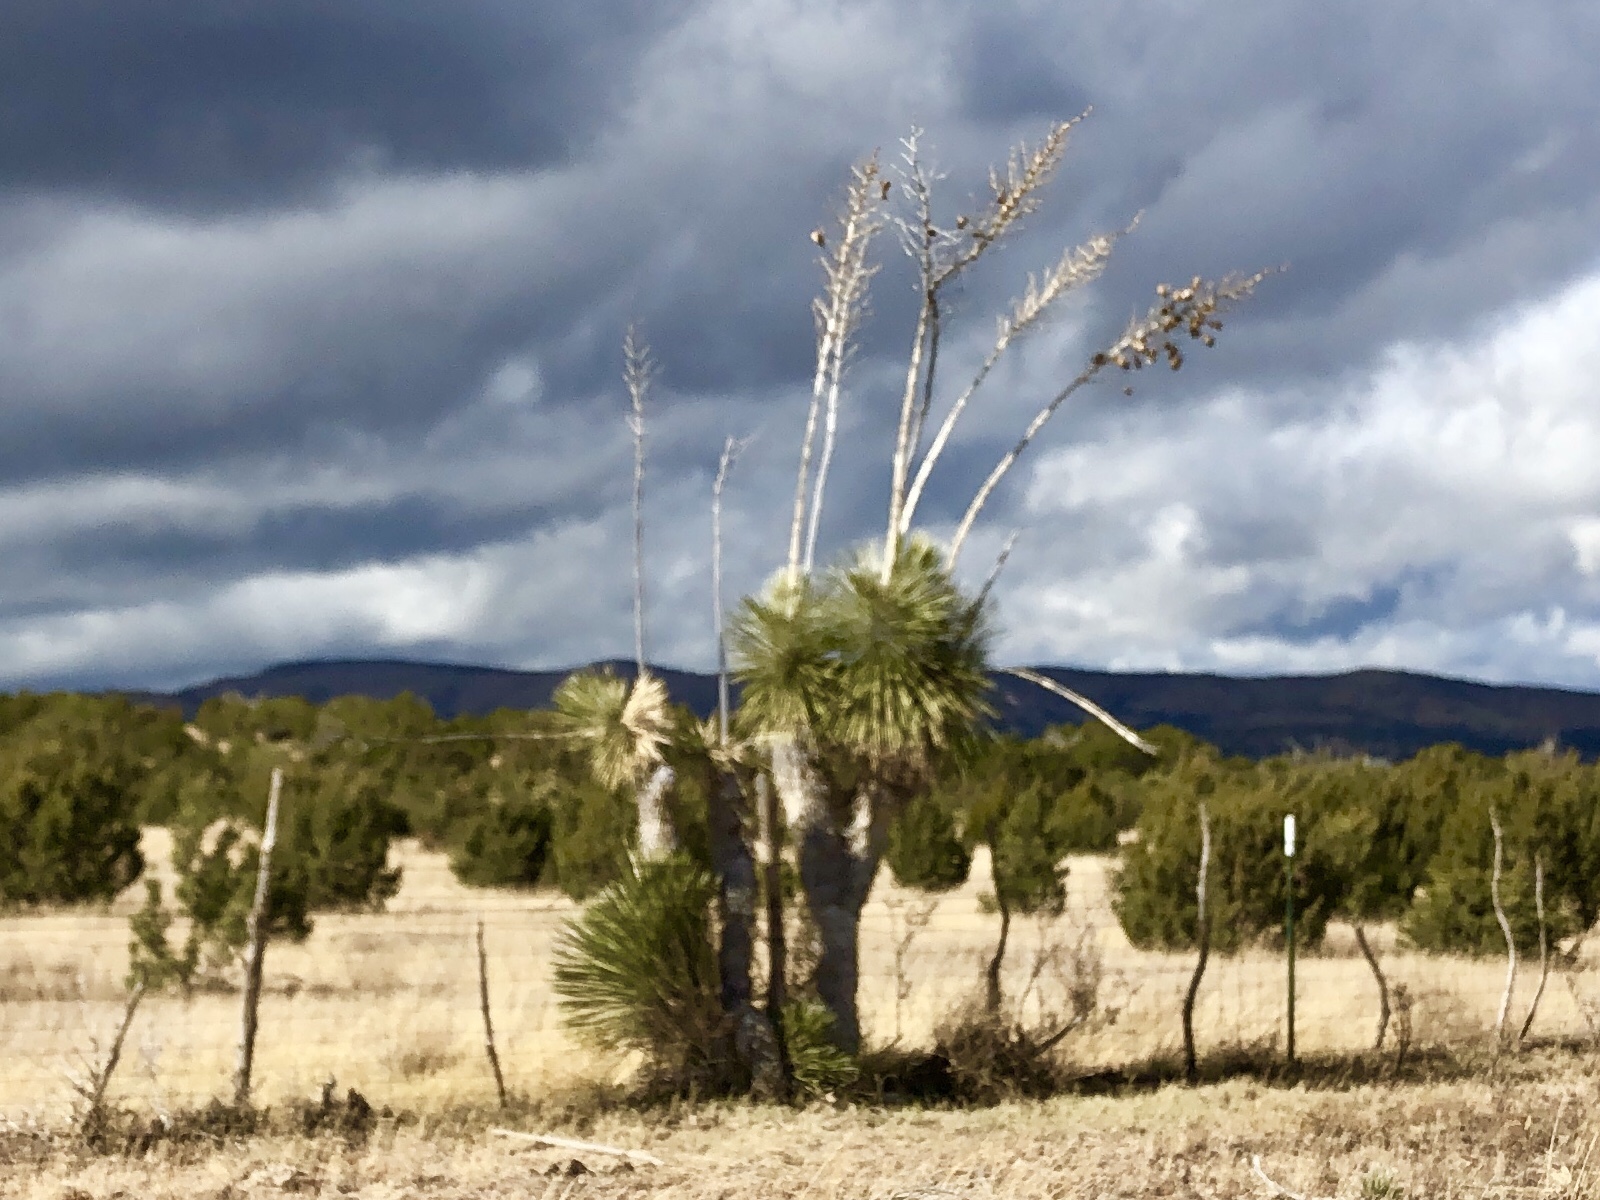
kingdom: Plantae
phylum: Tracheophyta
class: Liliopsida
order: Asparagales
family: Asparagaceae
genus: Yucca
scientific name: Yucca elata
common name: Palmella
